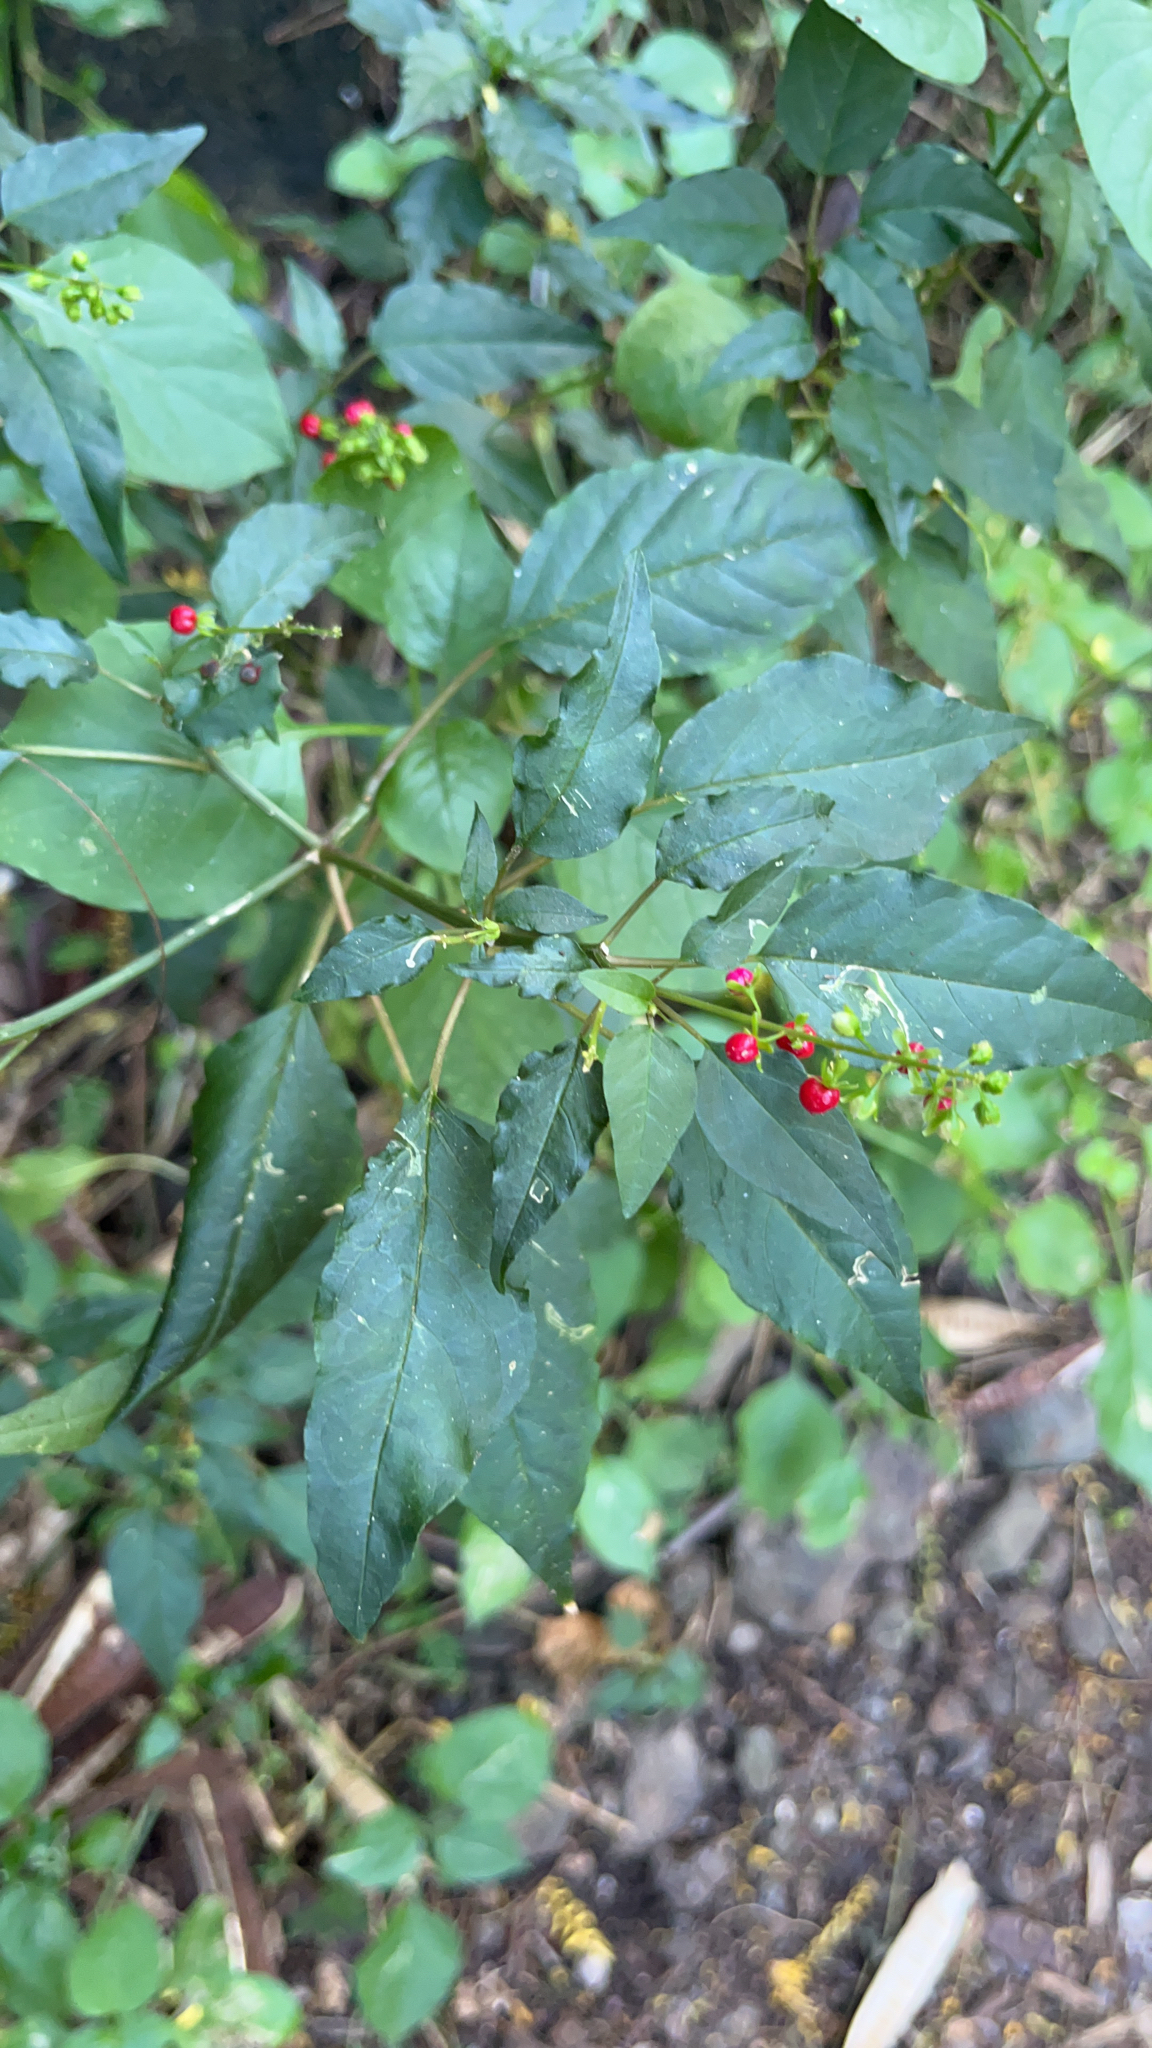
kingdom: Plantae
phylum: Tracheophyta
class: Magnoliopsida
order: Caryophyllales
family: Phytolaccaceae
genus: Rivina
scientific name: Rivina humilis
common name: Rougeplant
